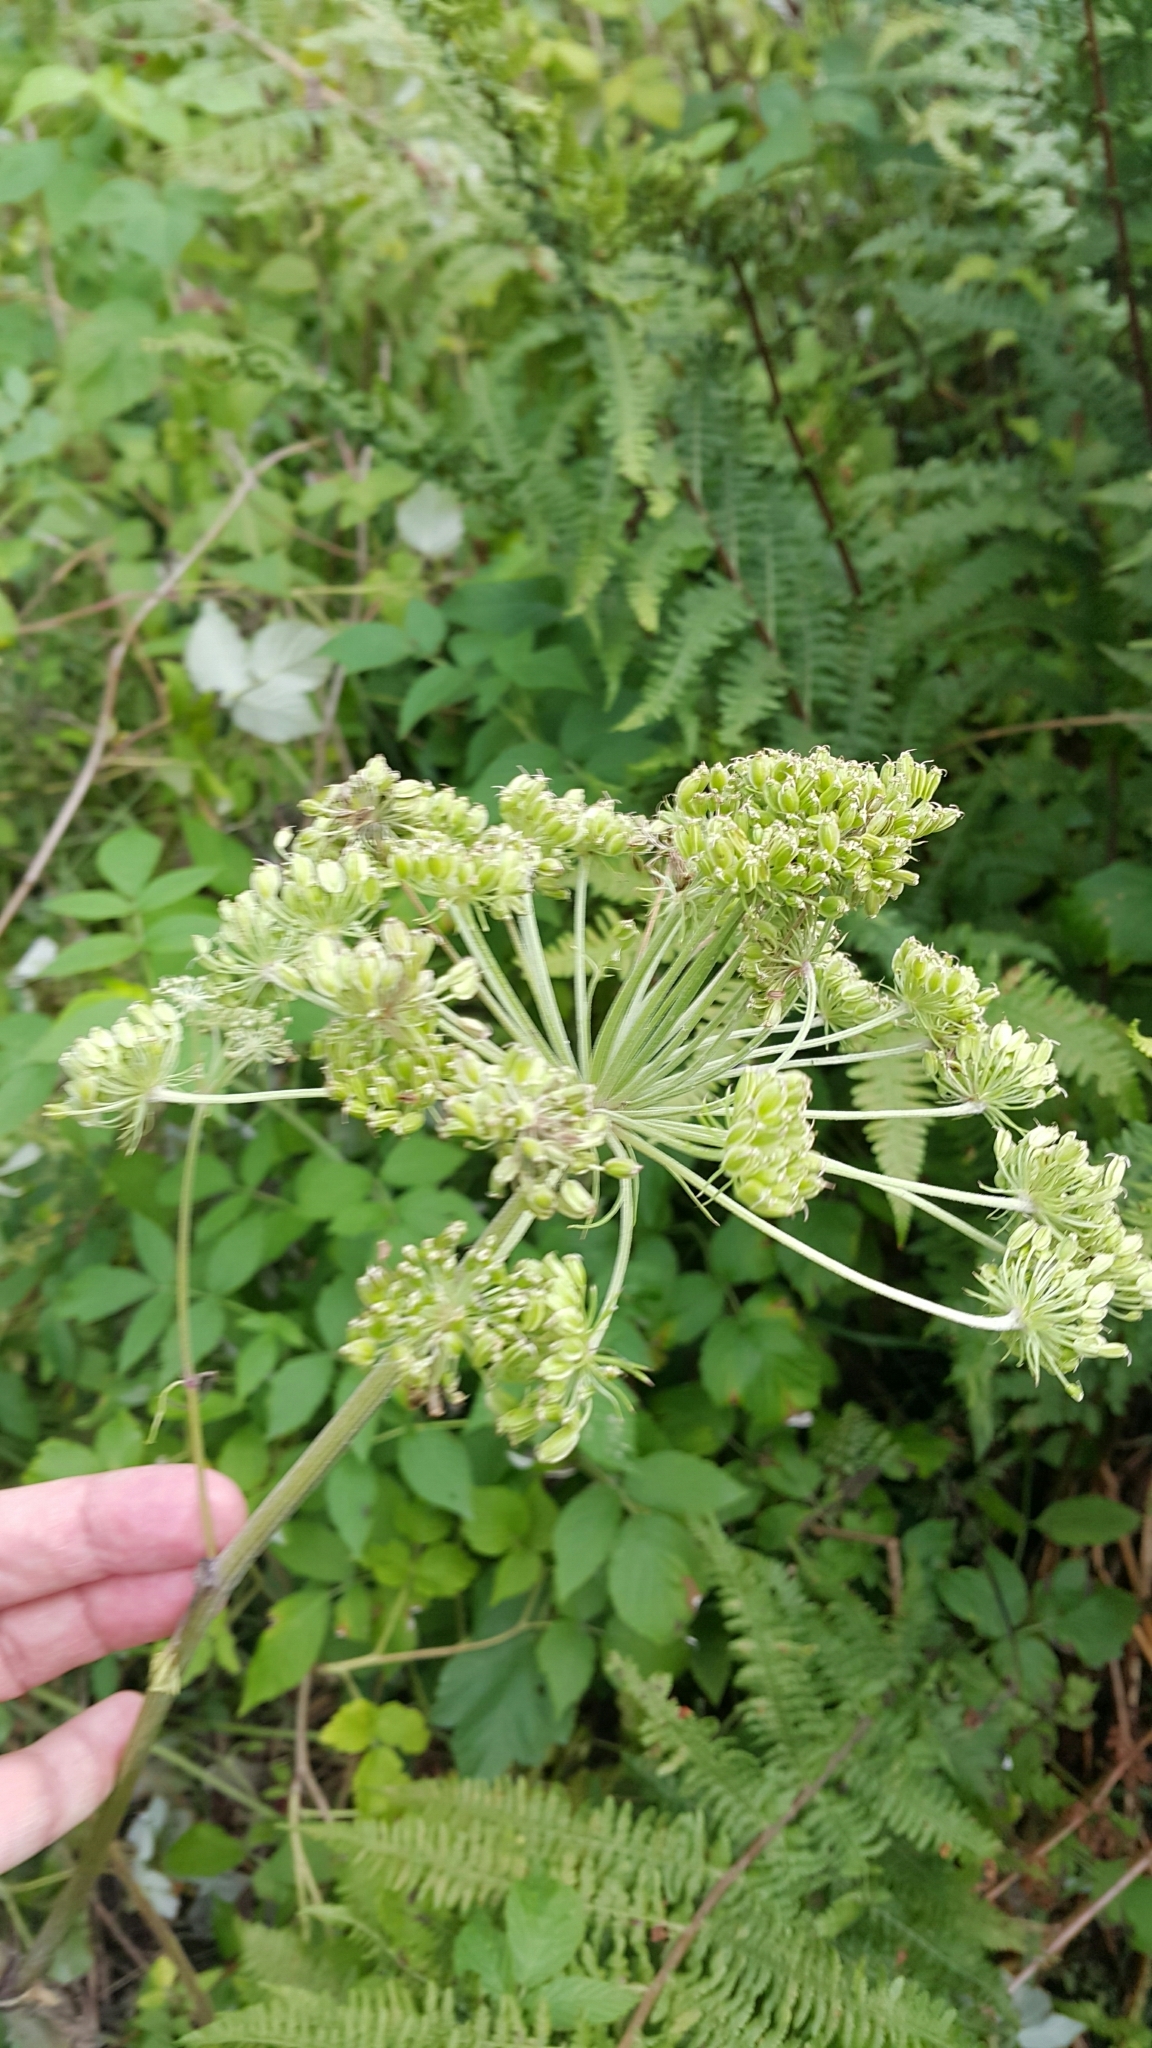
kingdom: Plantae
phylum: Tracheophyta
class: Magnoliopsida
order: Apiales
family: Apiaceae
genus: Angelica
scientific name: Angelica sylvestris
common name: Wild angelica
